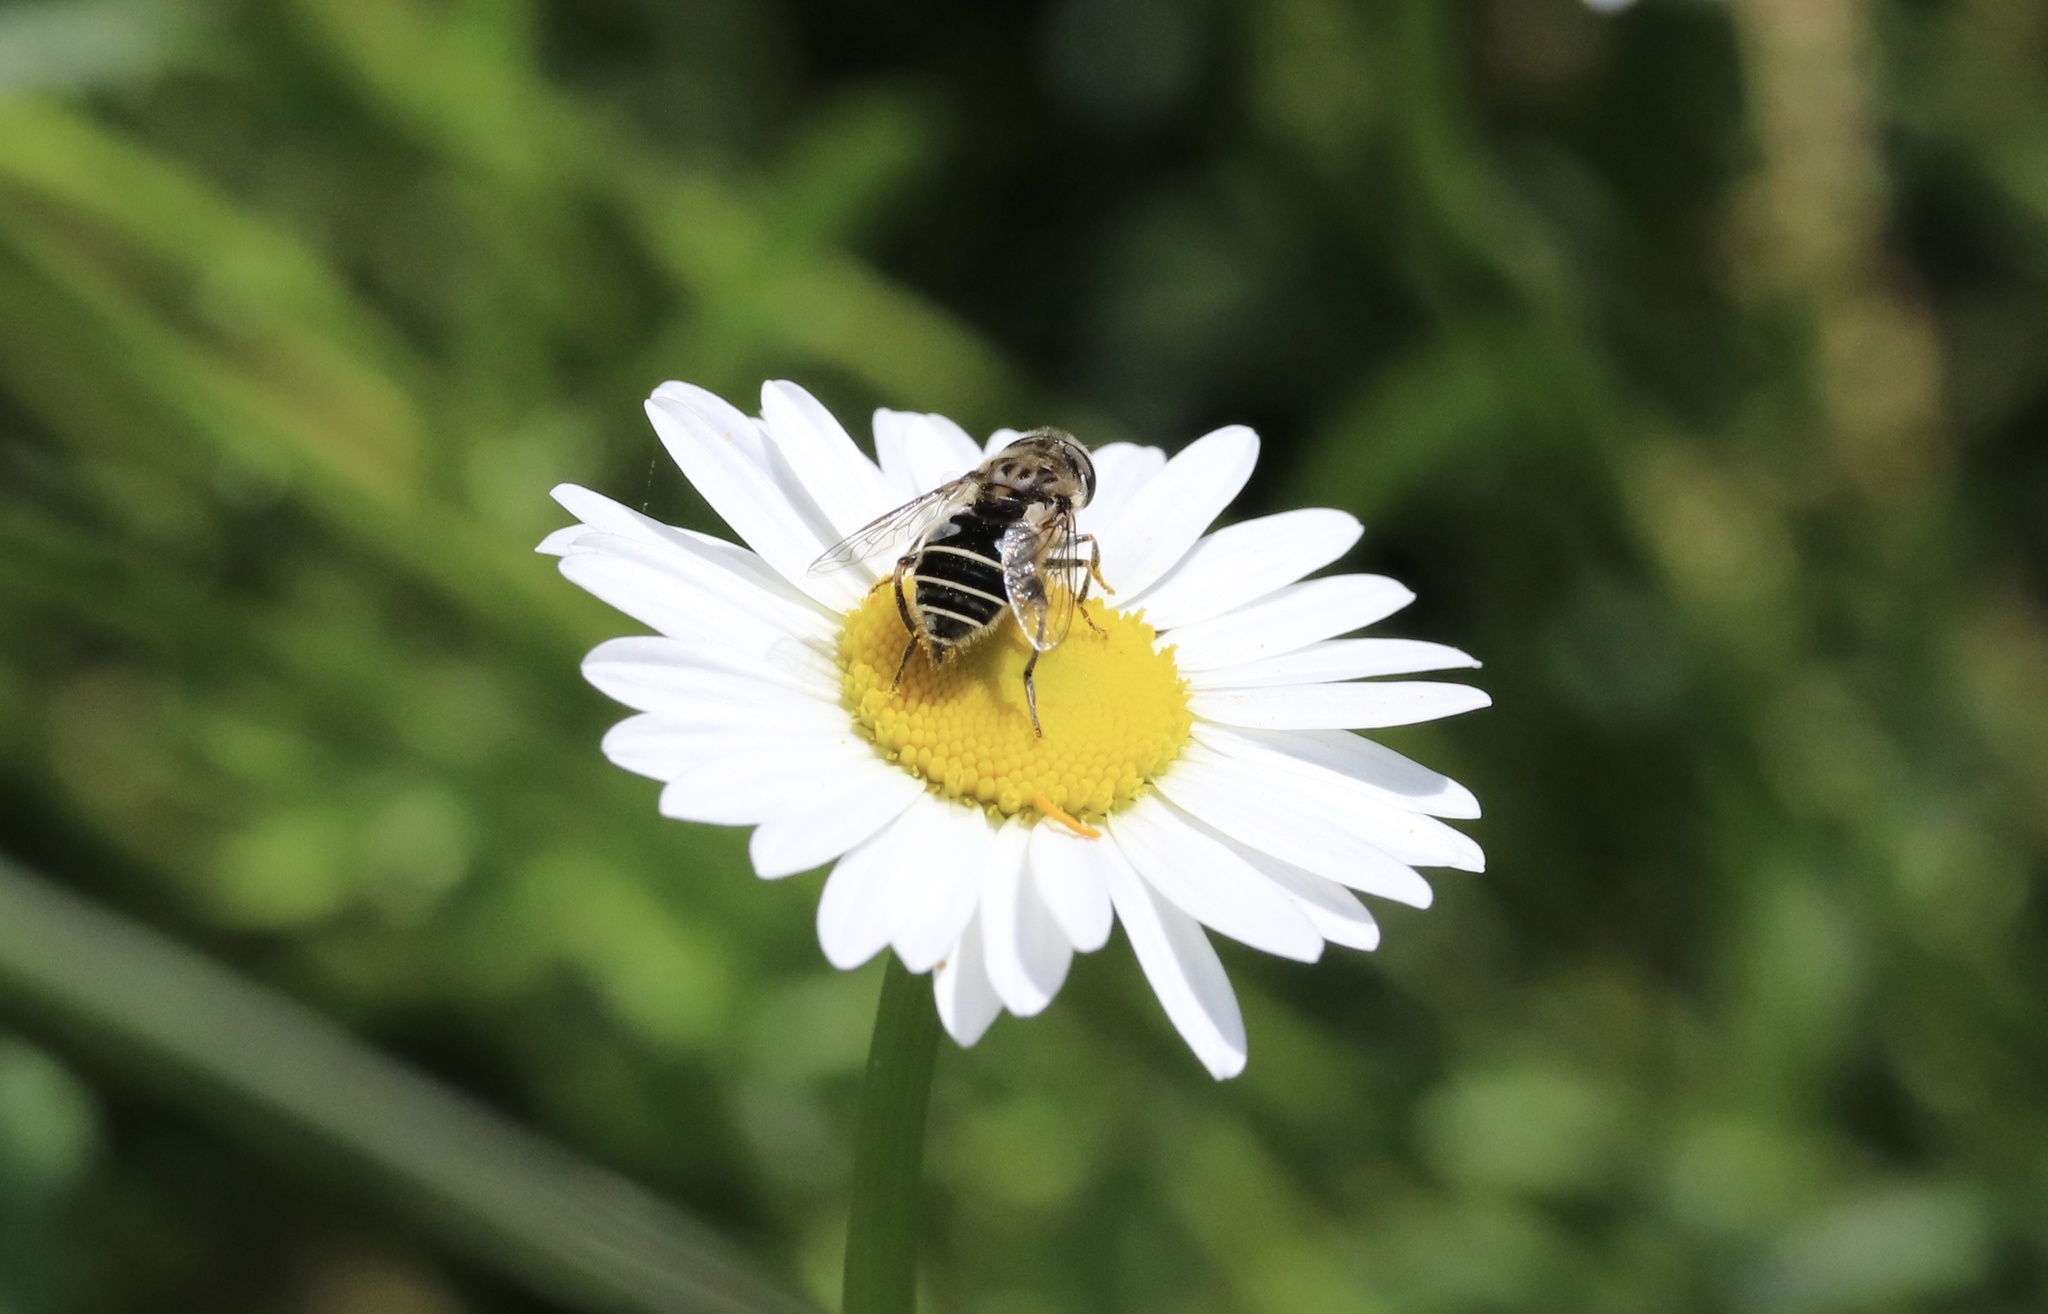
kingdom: Animalia
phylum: Arthropoda
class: Insecta
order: Diptera
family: Syrphidae
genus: Palpada
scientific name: Palpada meigenii
